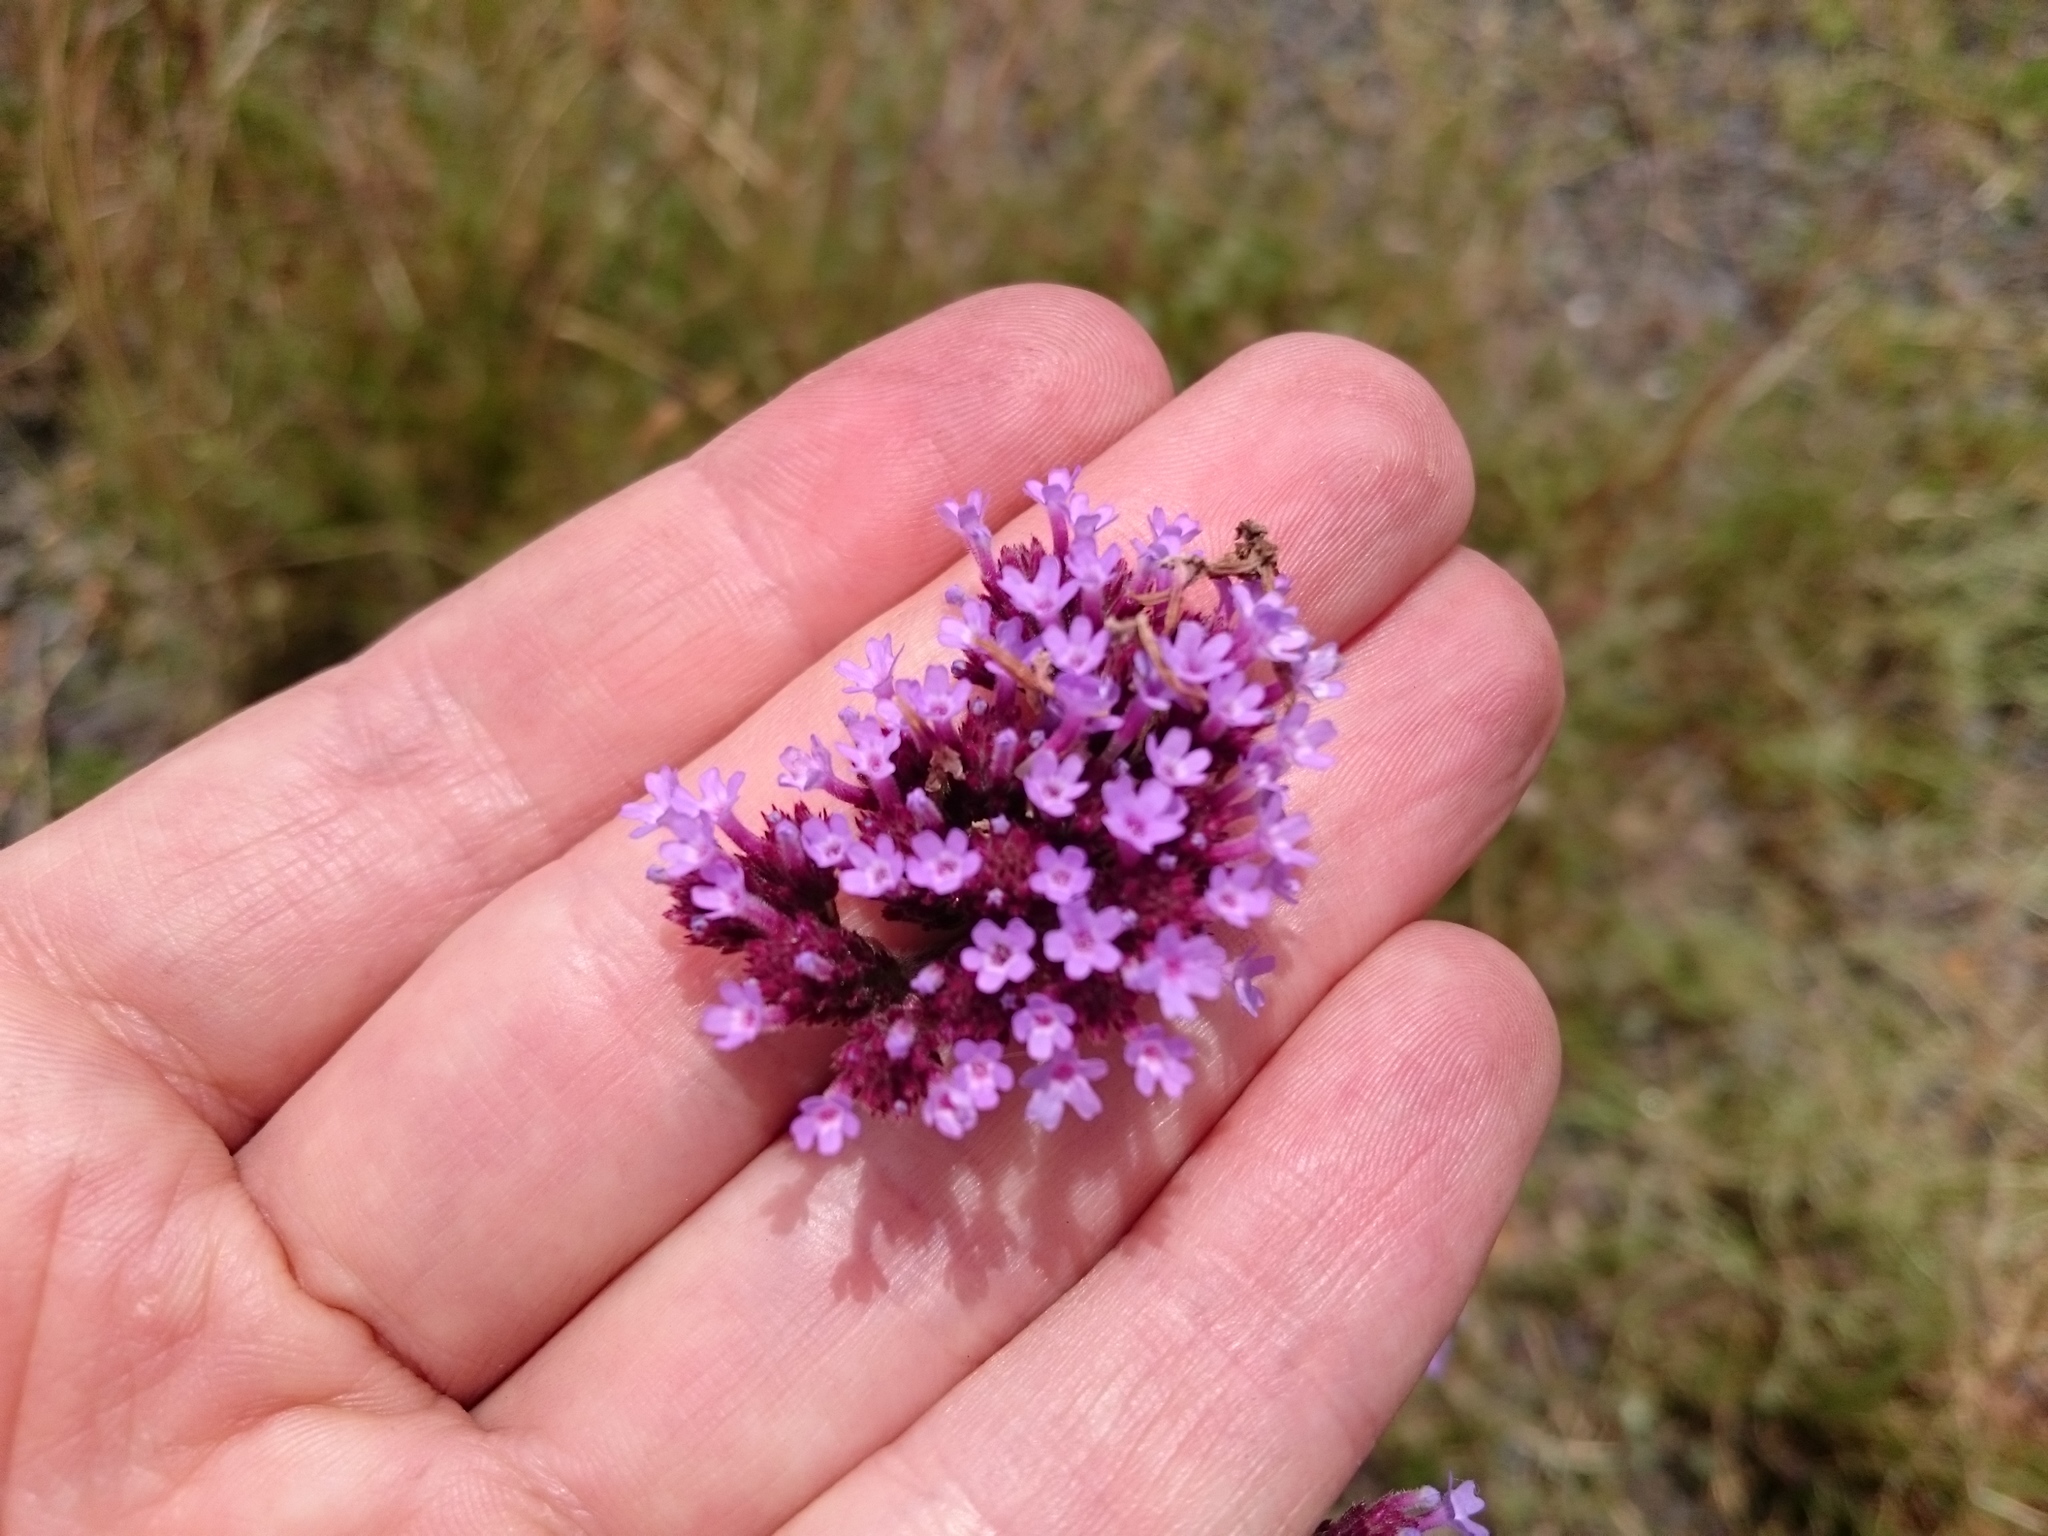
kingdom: Plantae
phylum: Tracheophyta
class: Magnoliopsida
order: Lamiales
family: Verbenaceae
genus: Verbena
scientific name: Verbena bonariensis
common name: Purpletop vervain
